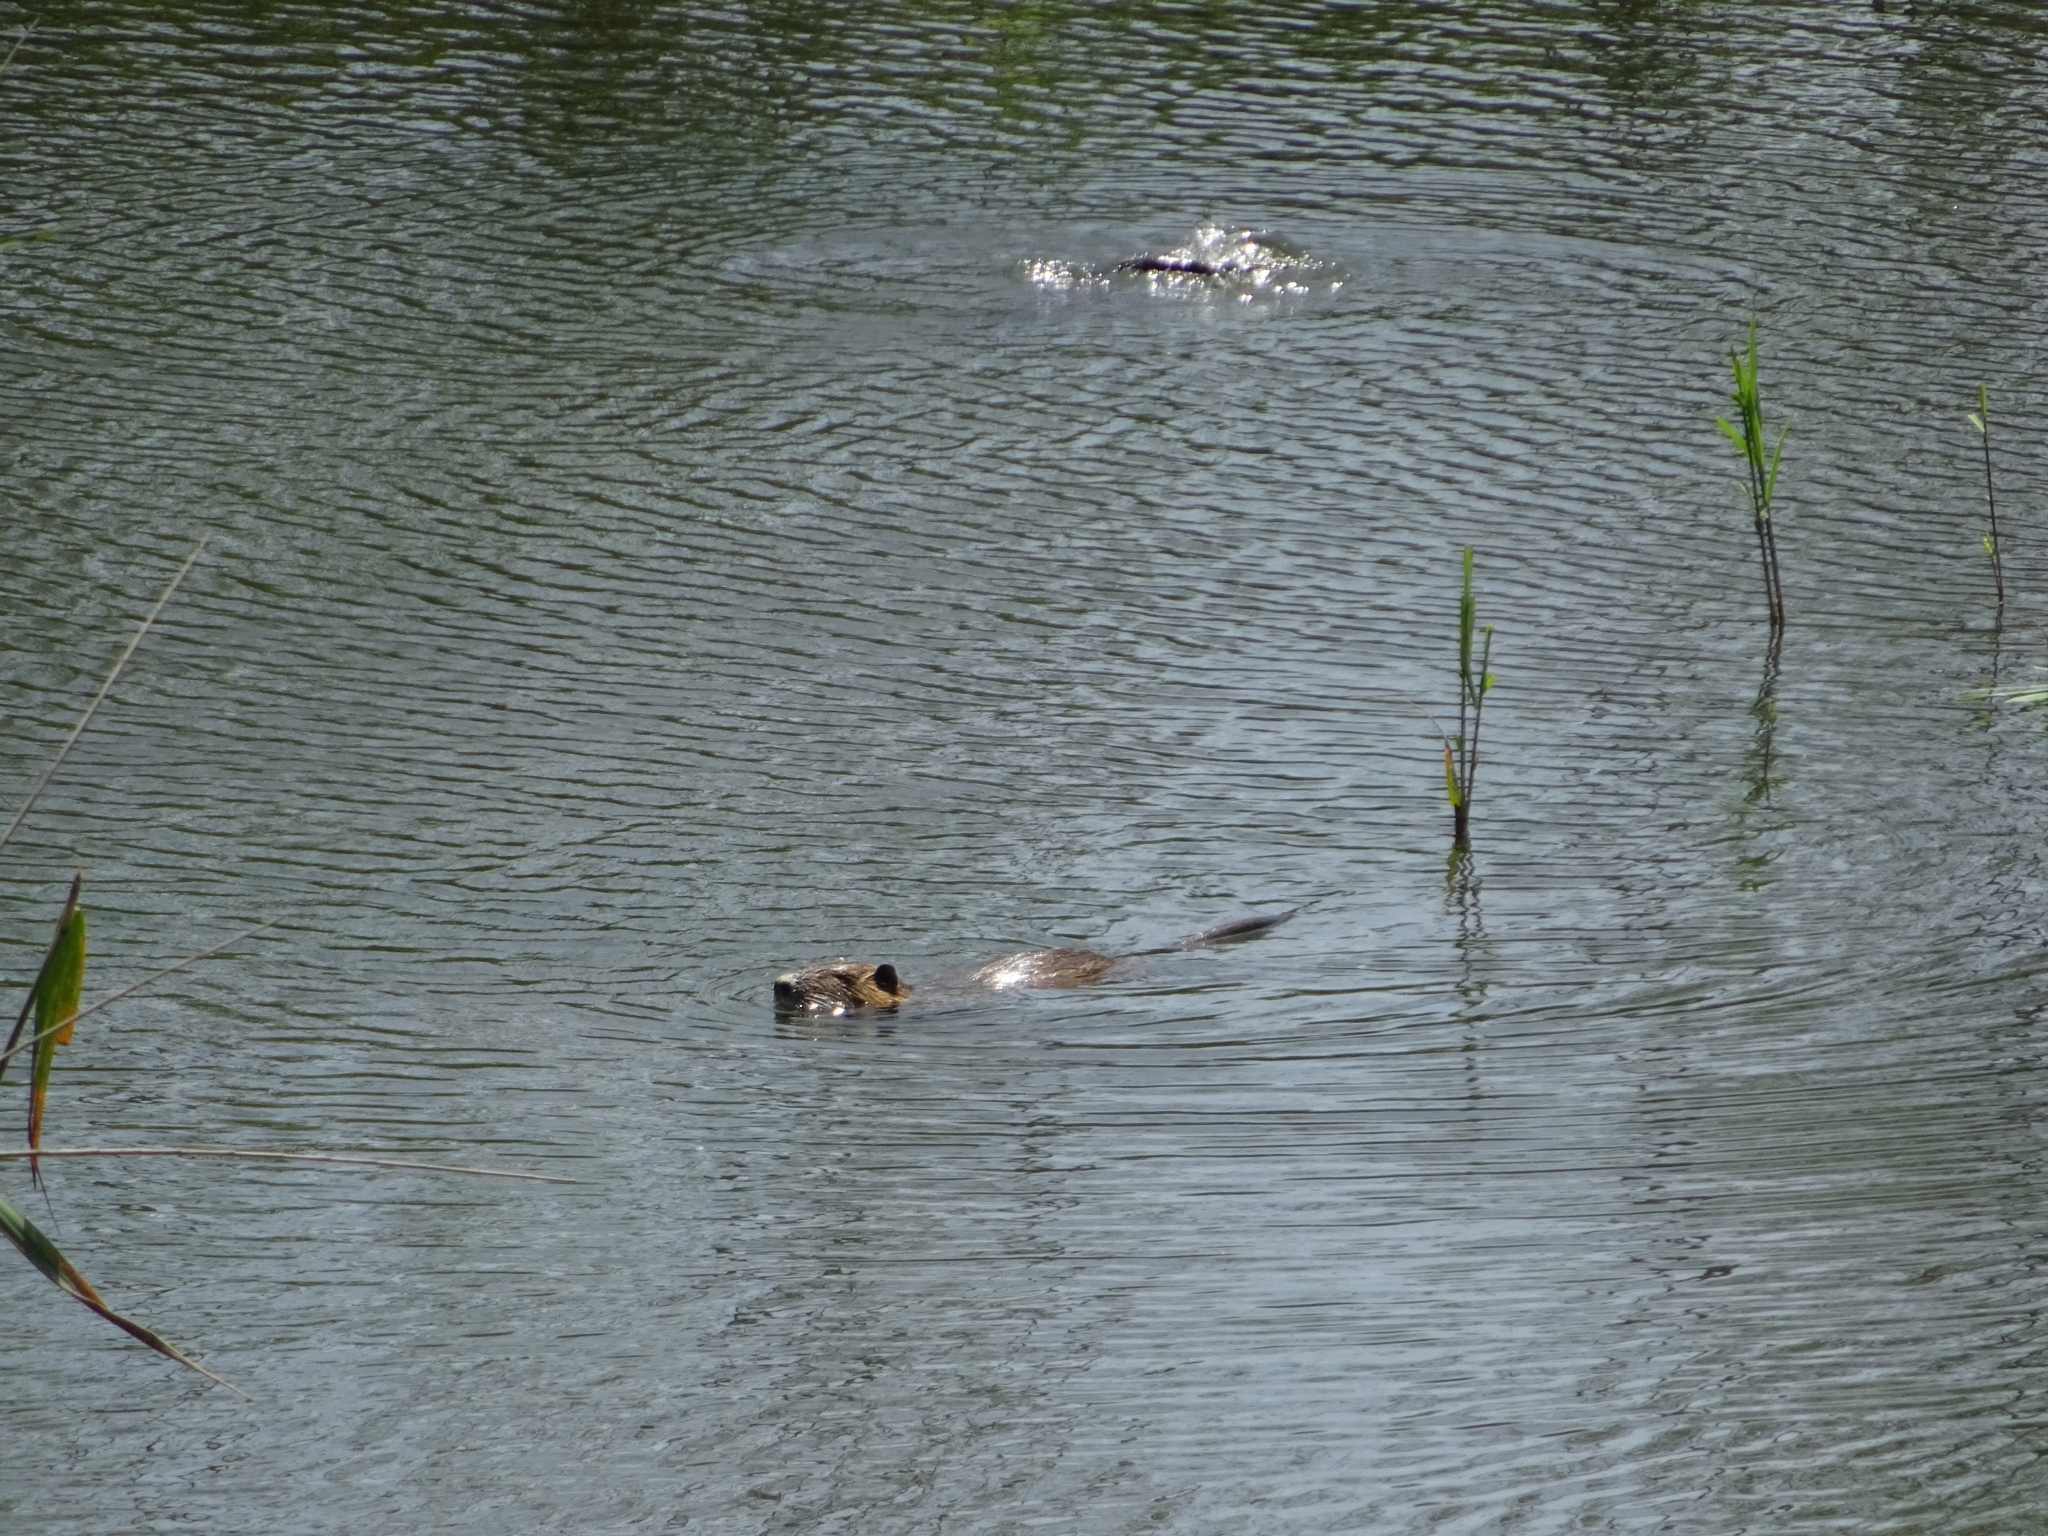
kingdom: Animalia
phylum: Chordata
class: Mammalia
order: Rodentia
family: Myocastoridae
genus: Myocastor
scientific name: Myocastor coypus
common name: Coypu
